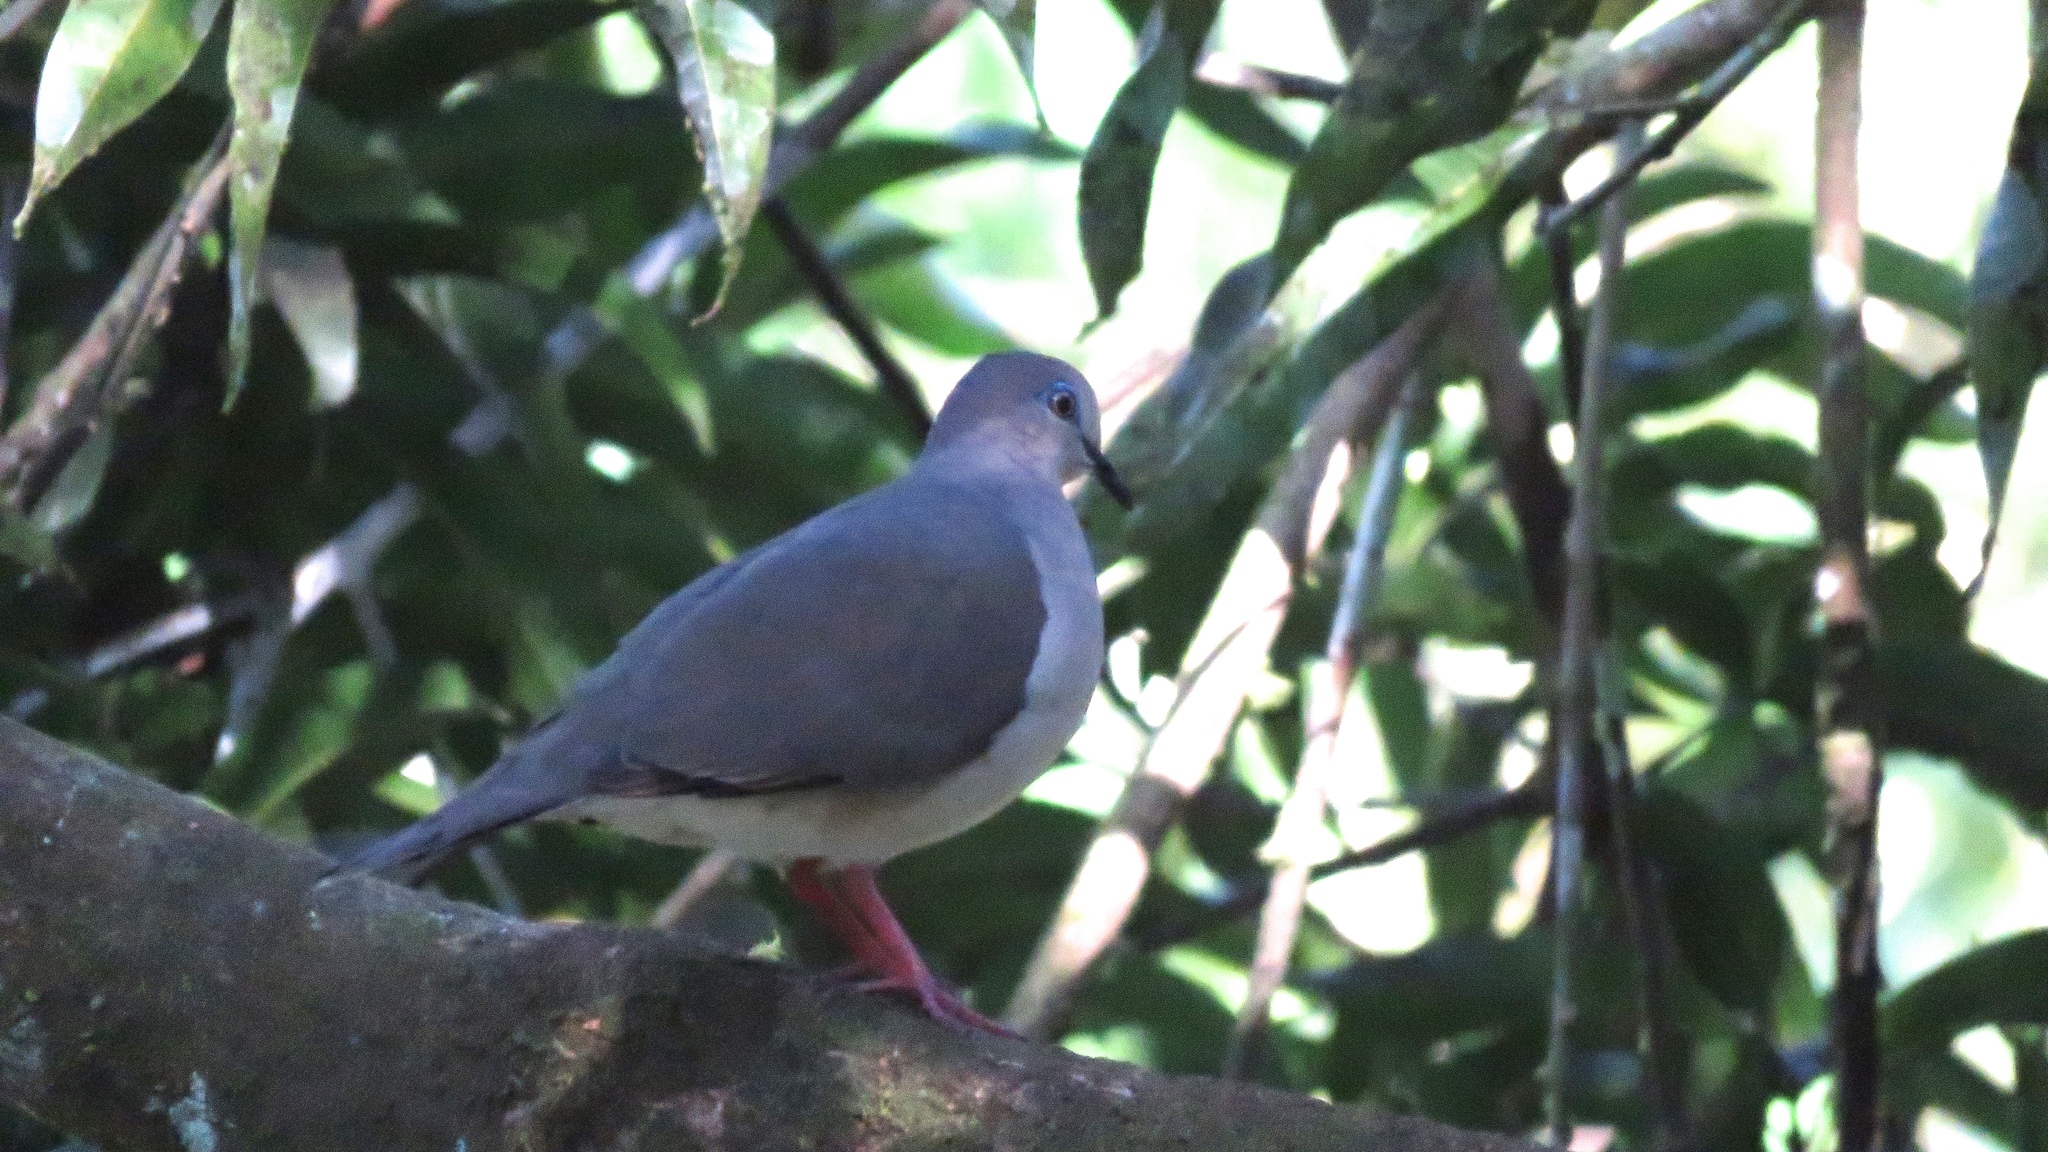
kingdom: Animalia
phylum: Chordata
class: Aves
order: Columbiformes
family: Columbidae
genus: Leptotila
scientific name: Leptotila verreauxi
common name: White-tipped dove
